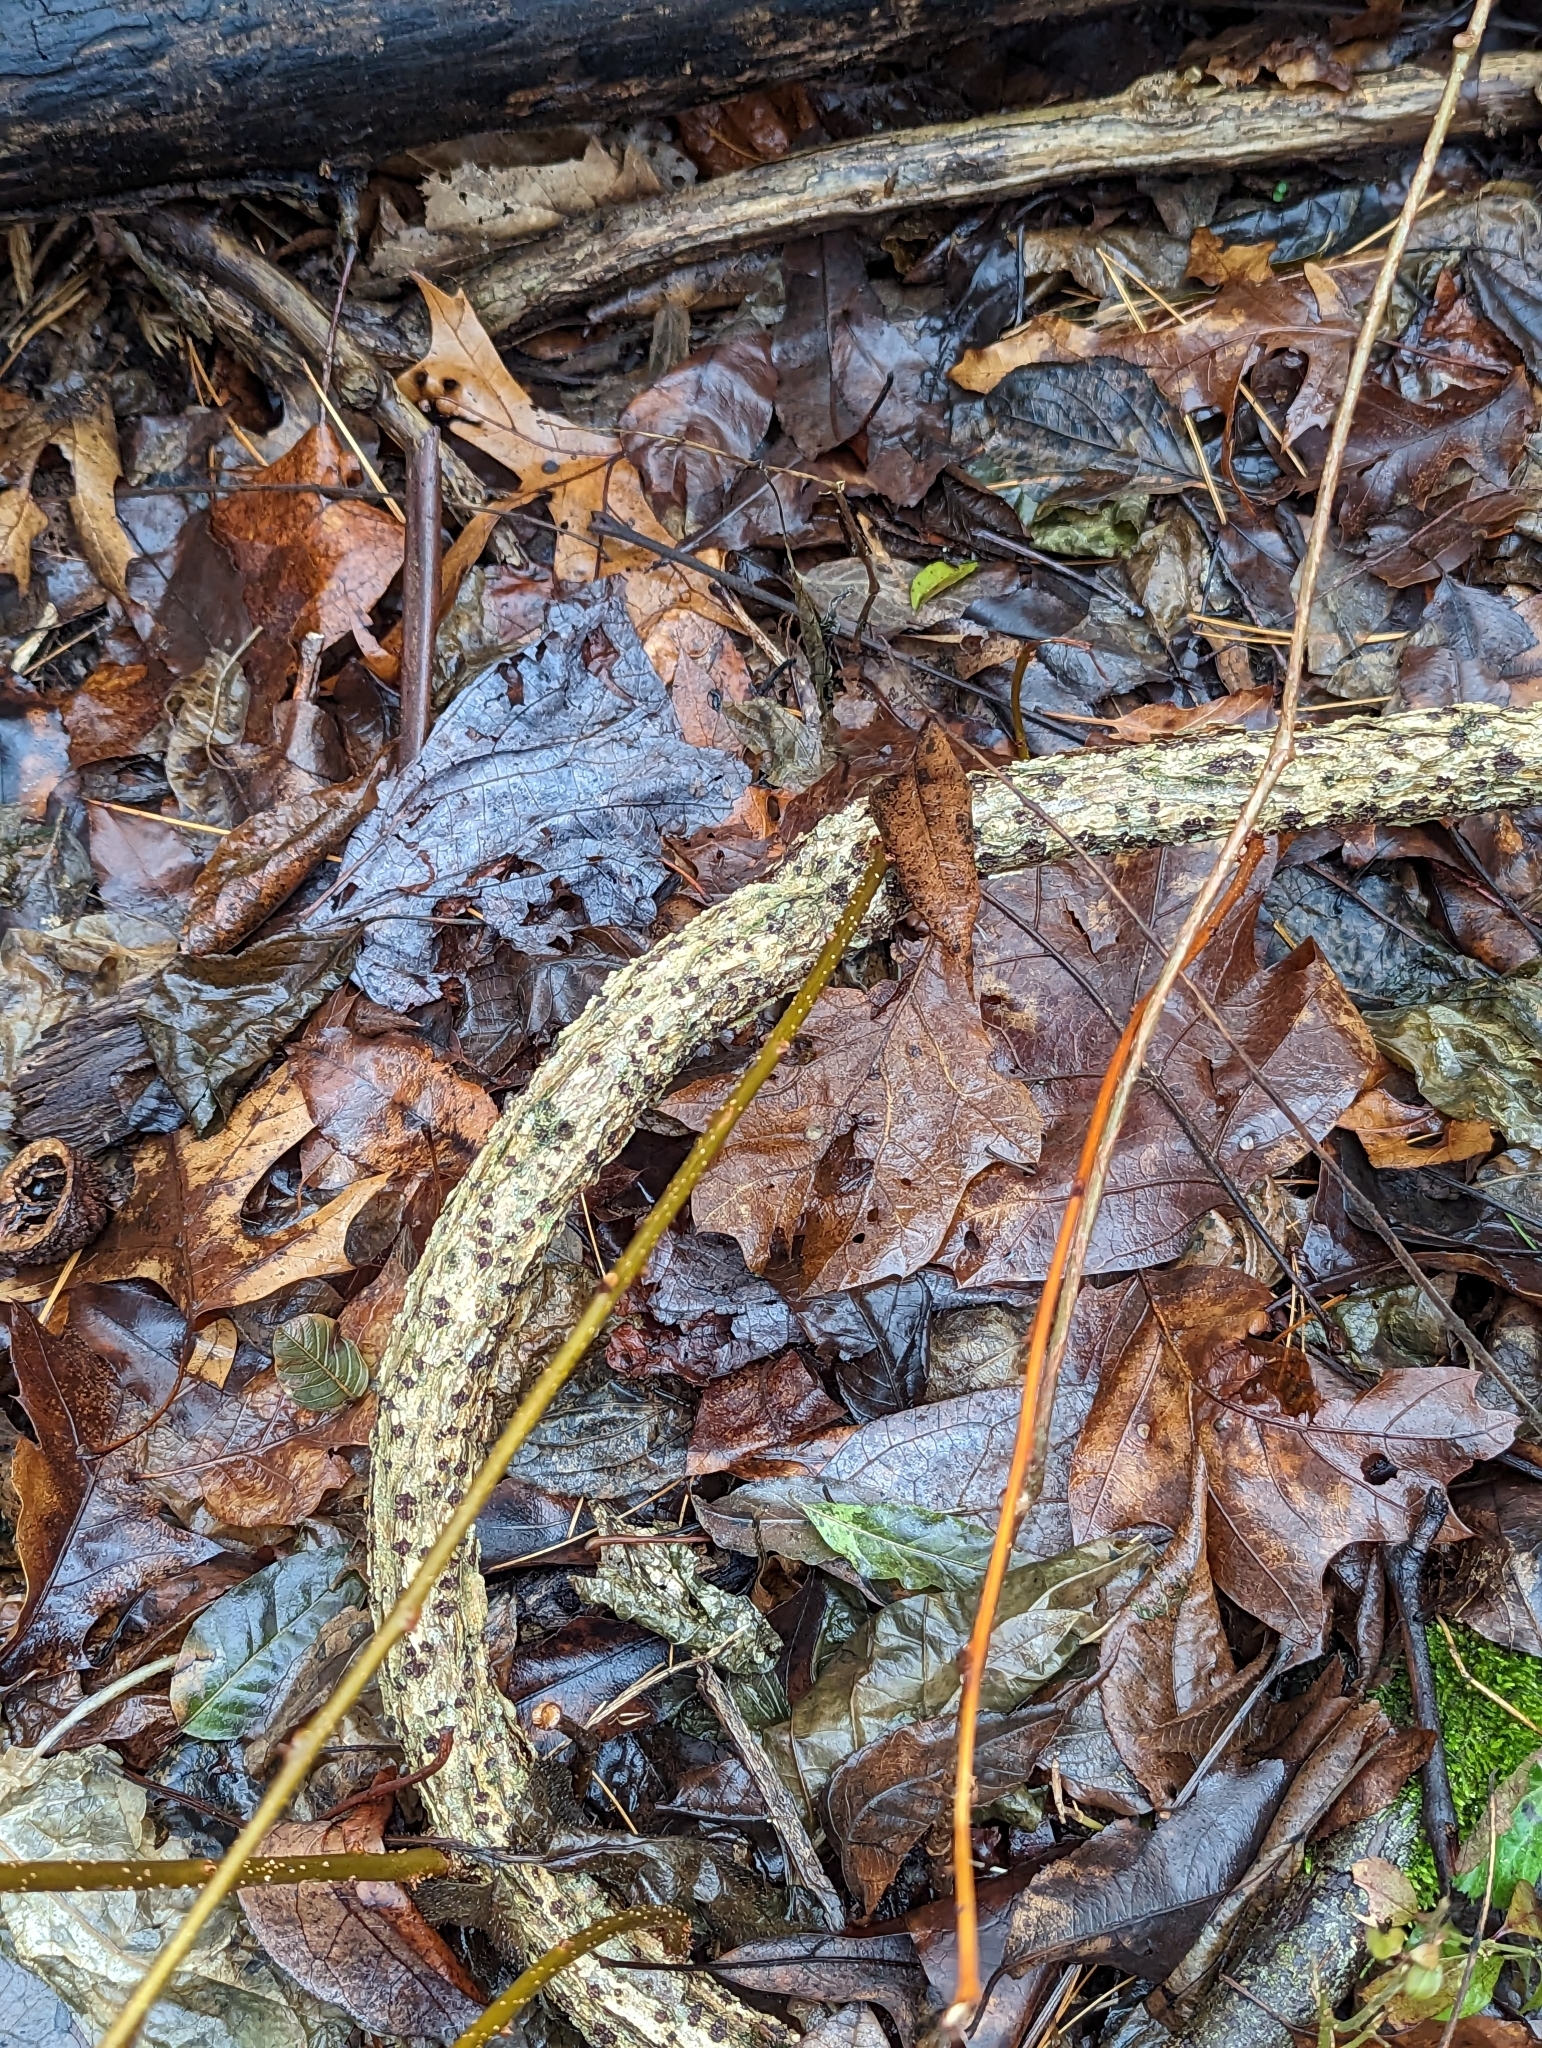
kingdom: Plantae
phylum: Tracheophyta
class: Magnoliopsida
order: Celastrales
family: Celastraceae
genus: Celastrus
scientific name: Celastrus orbiculatus
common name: Oriental bittersweet
